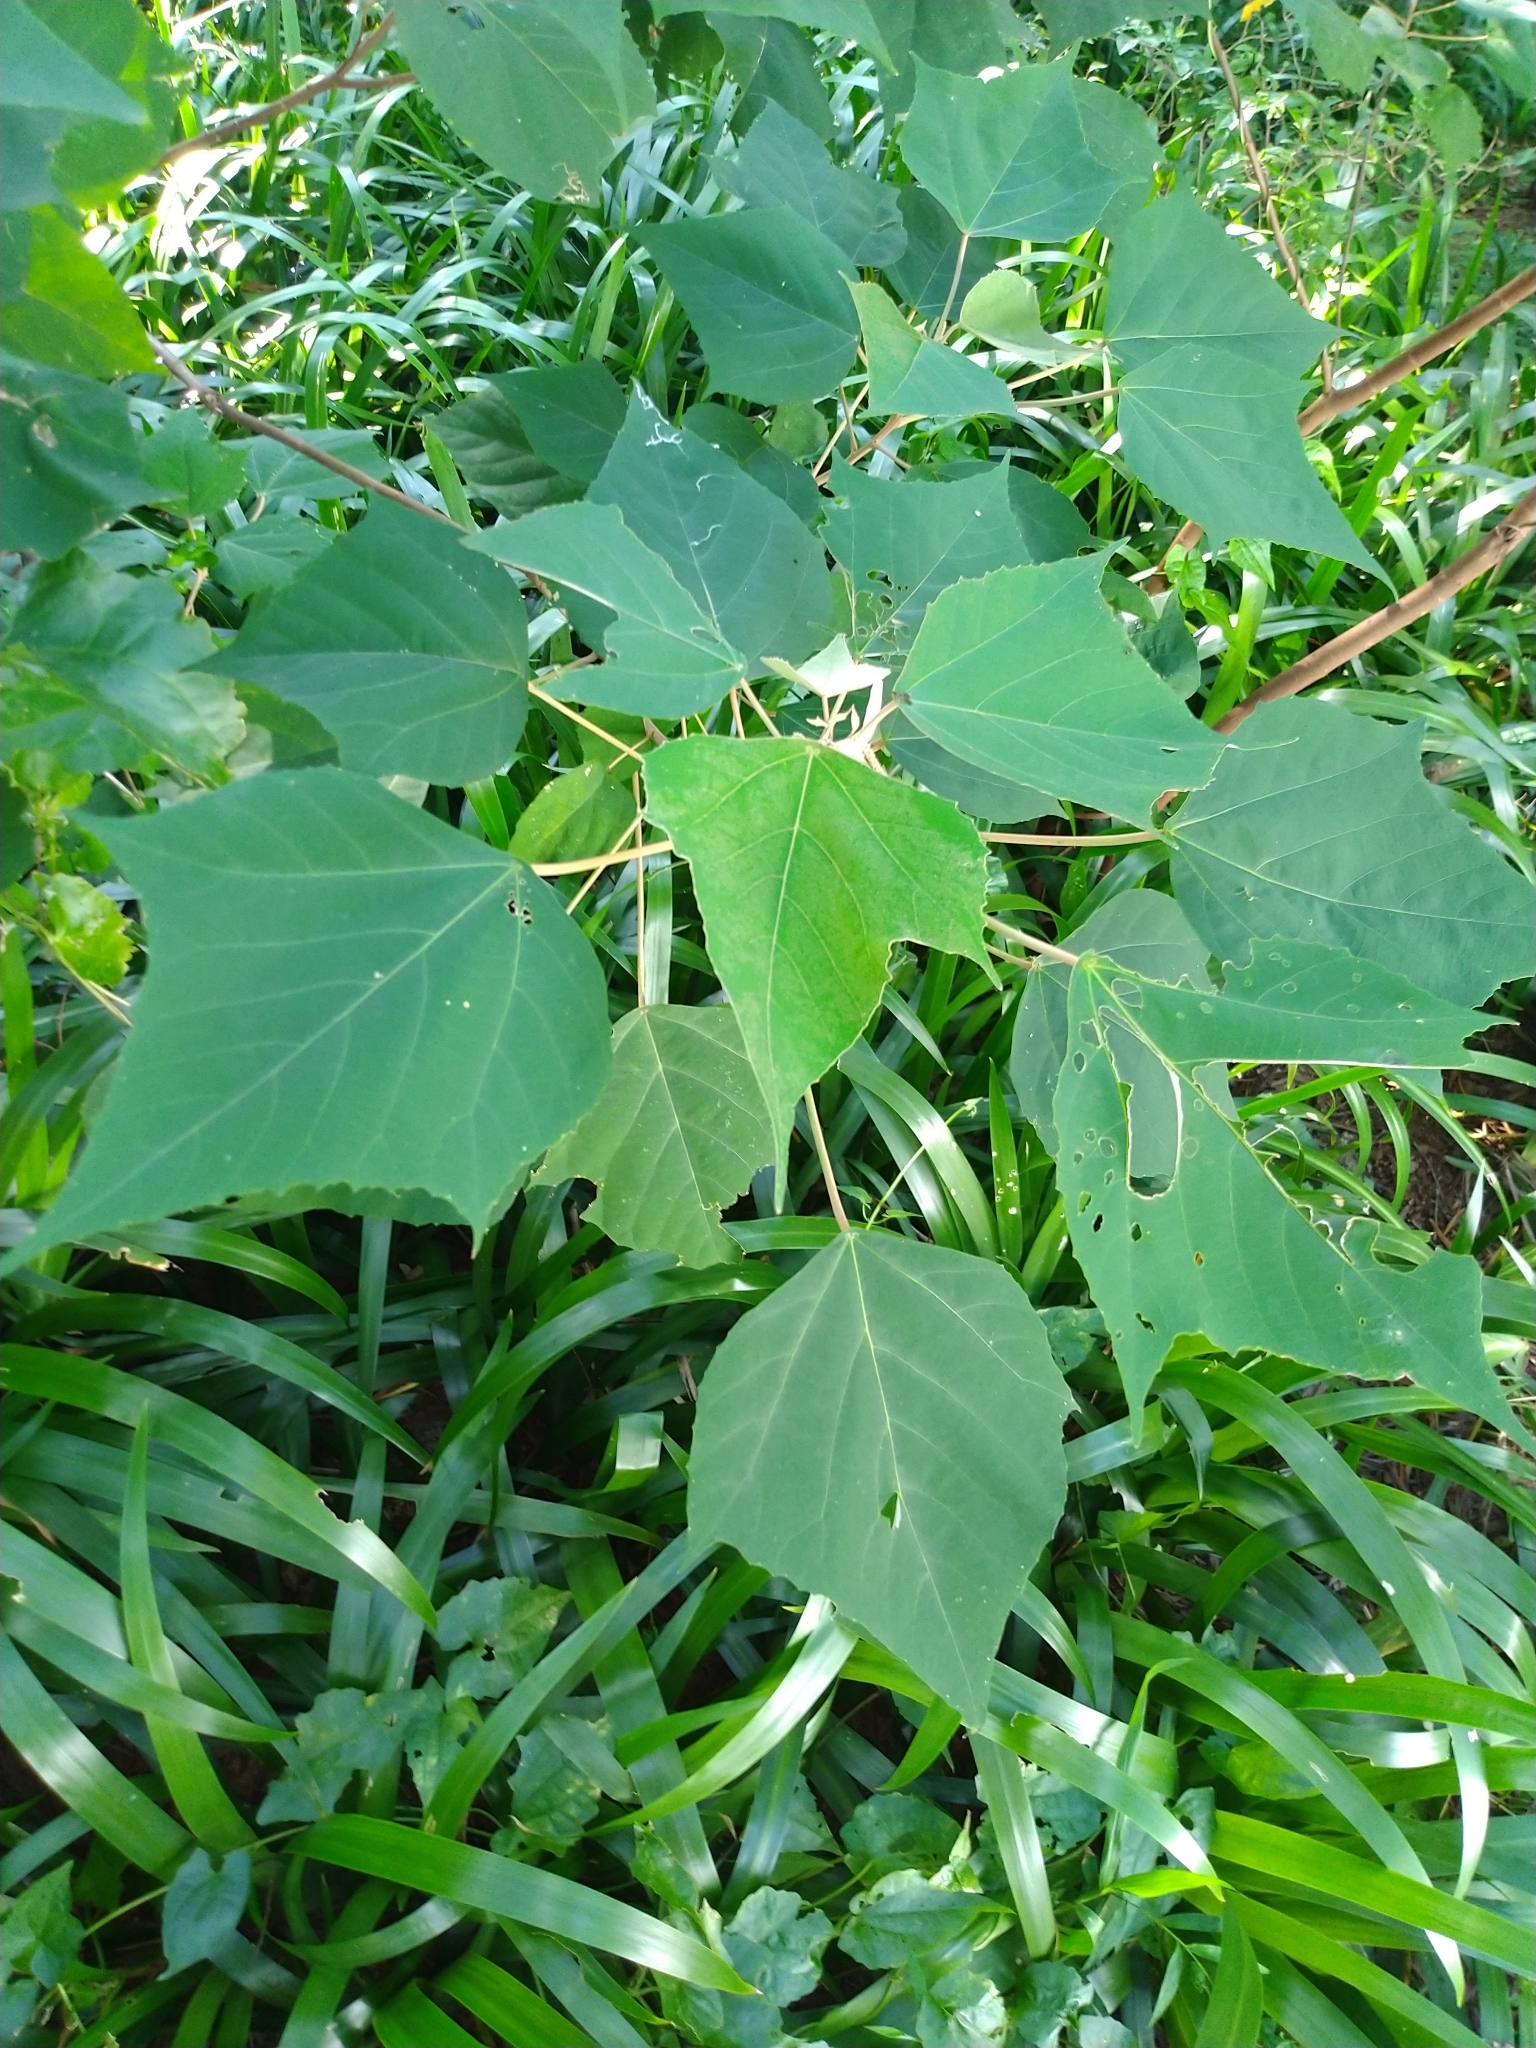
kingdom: Plantae
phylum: Tracheophyta
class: Magnoliopsida
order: Malpighiales
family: Euphorbiaceae
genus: Mallotus
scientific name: Mallotus paniculatus
